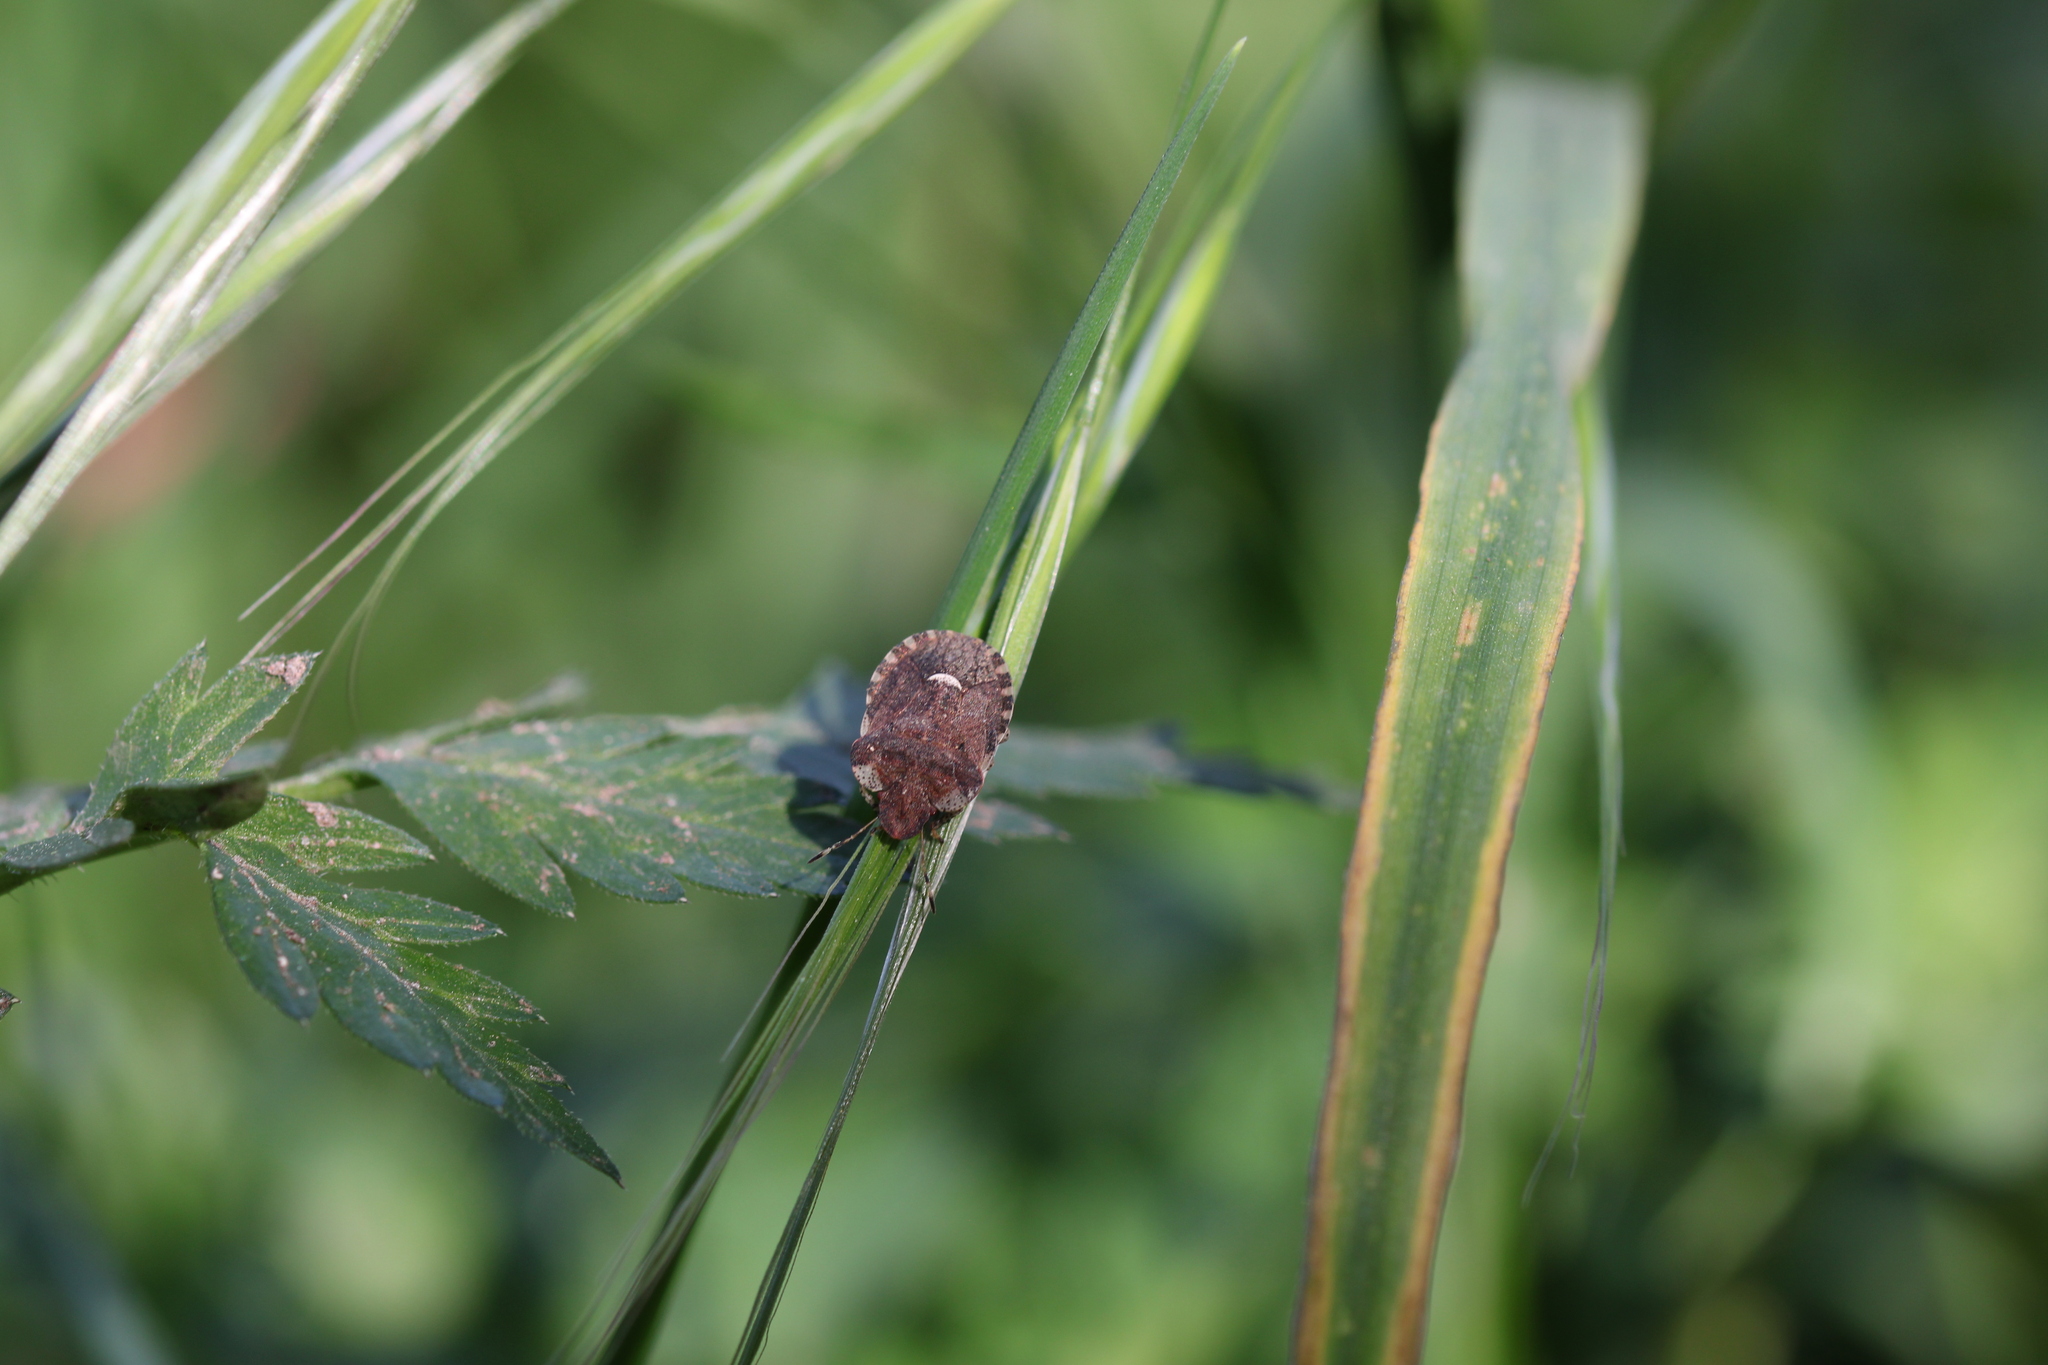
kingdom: Animalia
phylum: Arthropoda
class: Insecta
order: Hemiptera
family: Pentatomidae
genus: Dyroderes
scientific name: Dyroderes umbraculatus
